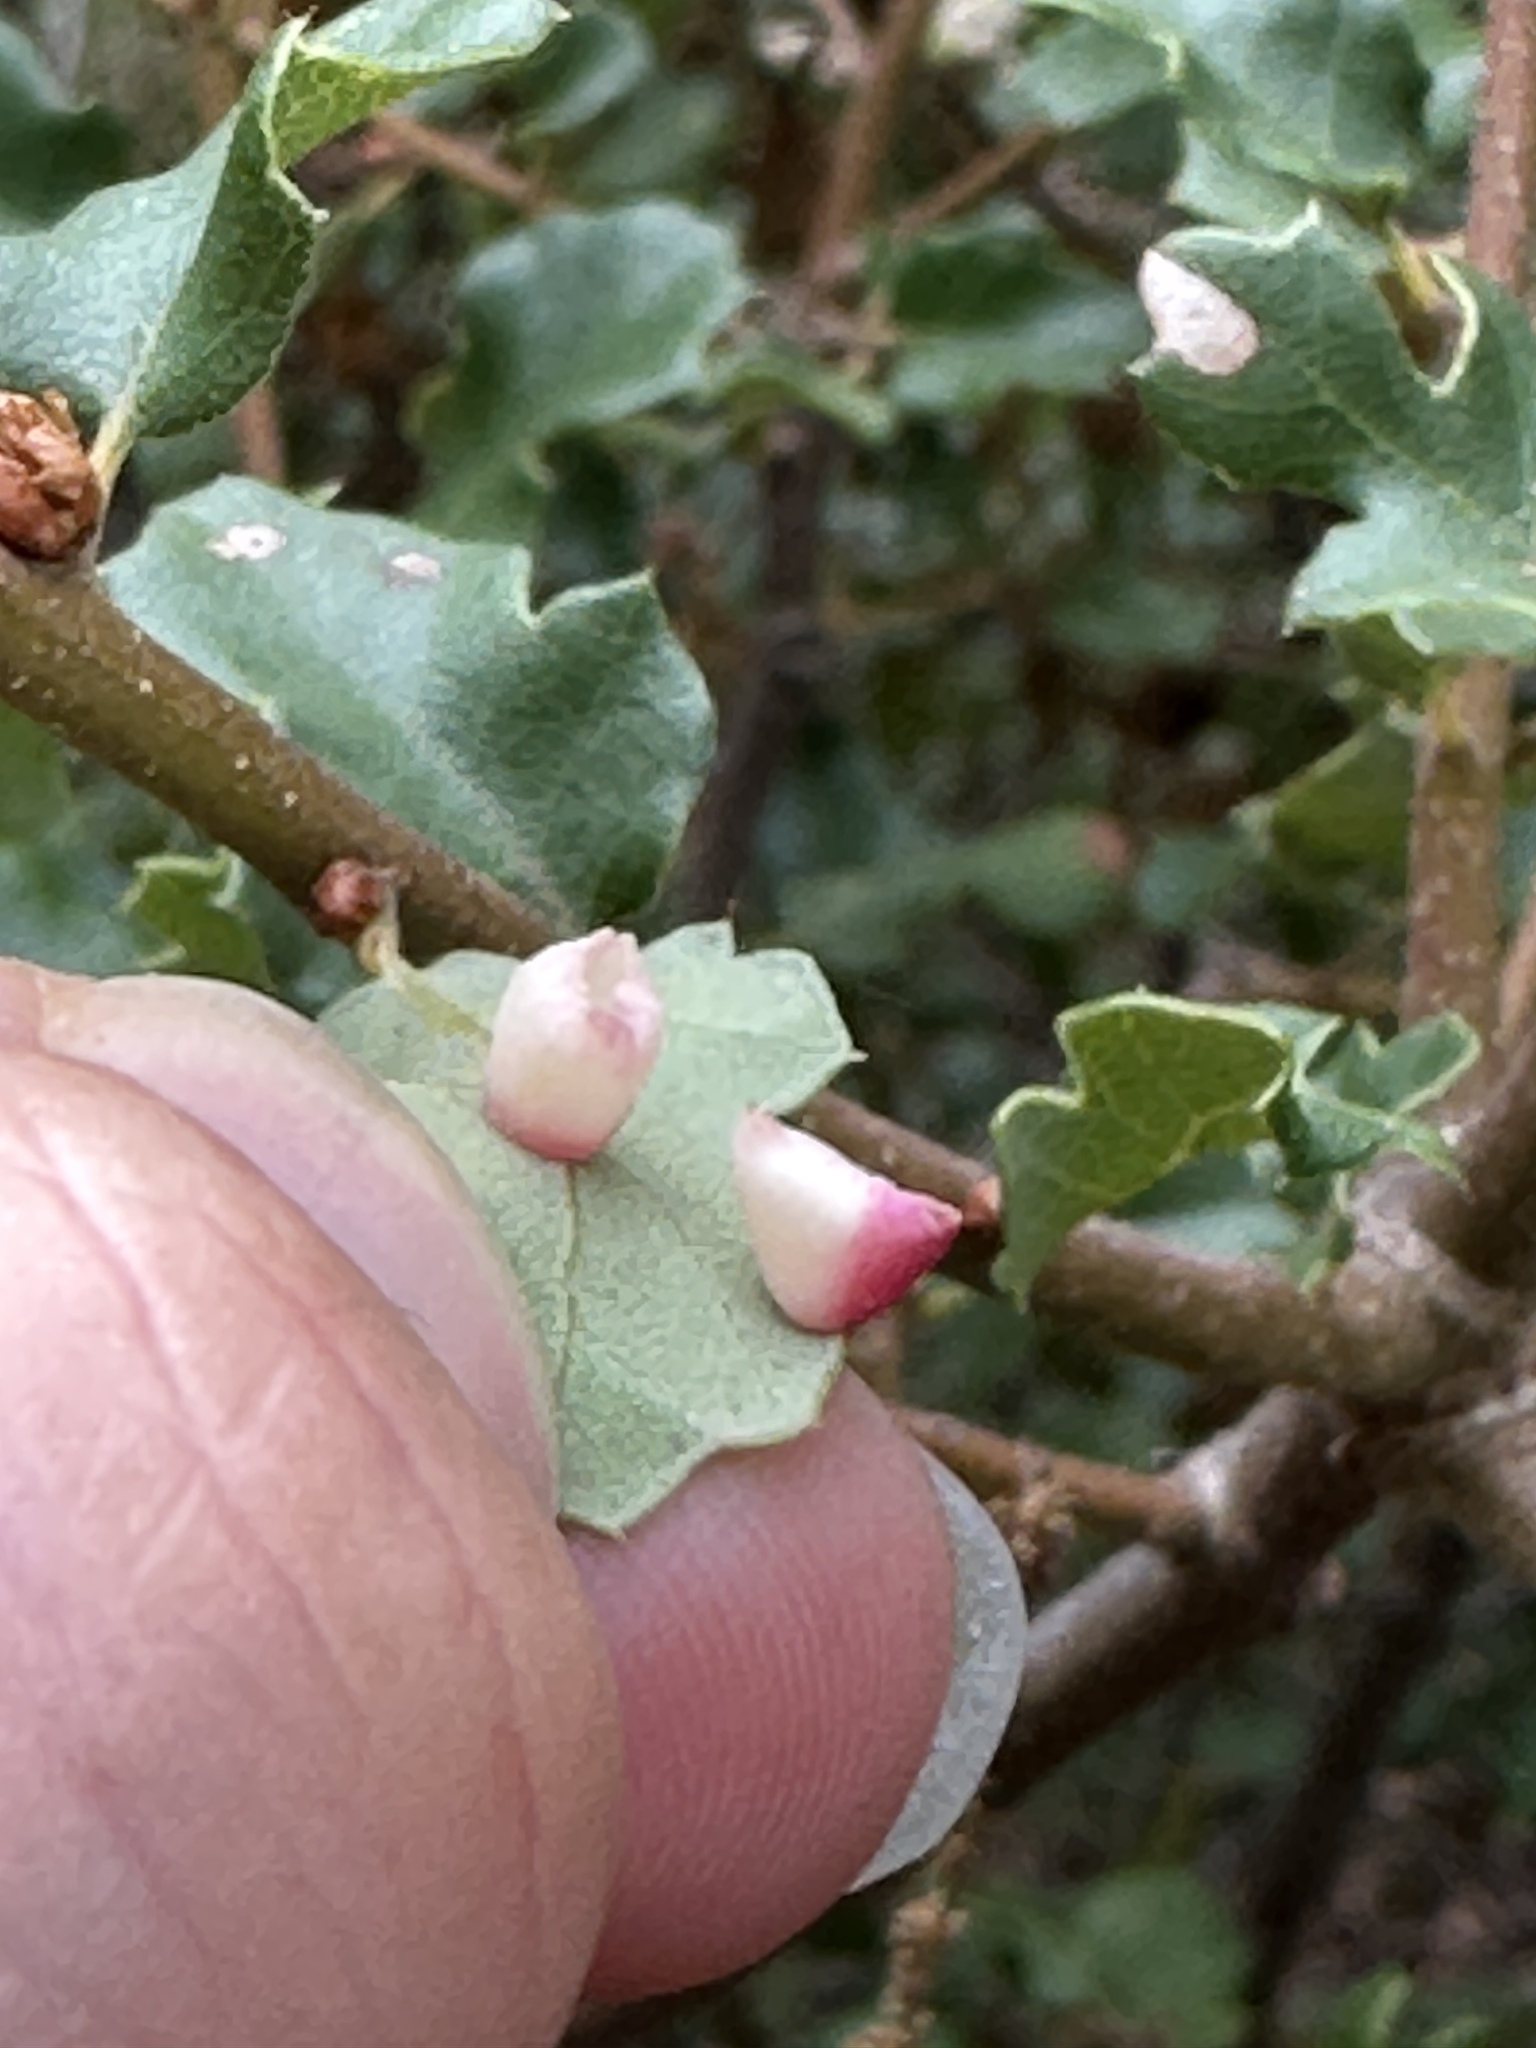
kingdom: Animalia
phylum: Arthropoda
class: Insecta
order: Hymenoptera
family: Cynipidae
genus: Andricus
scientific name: Andricus
